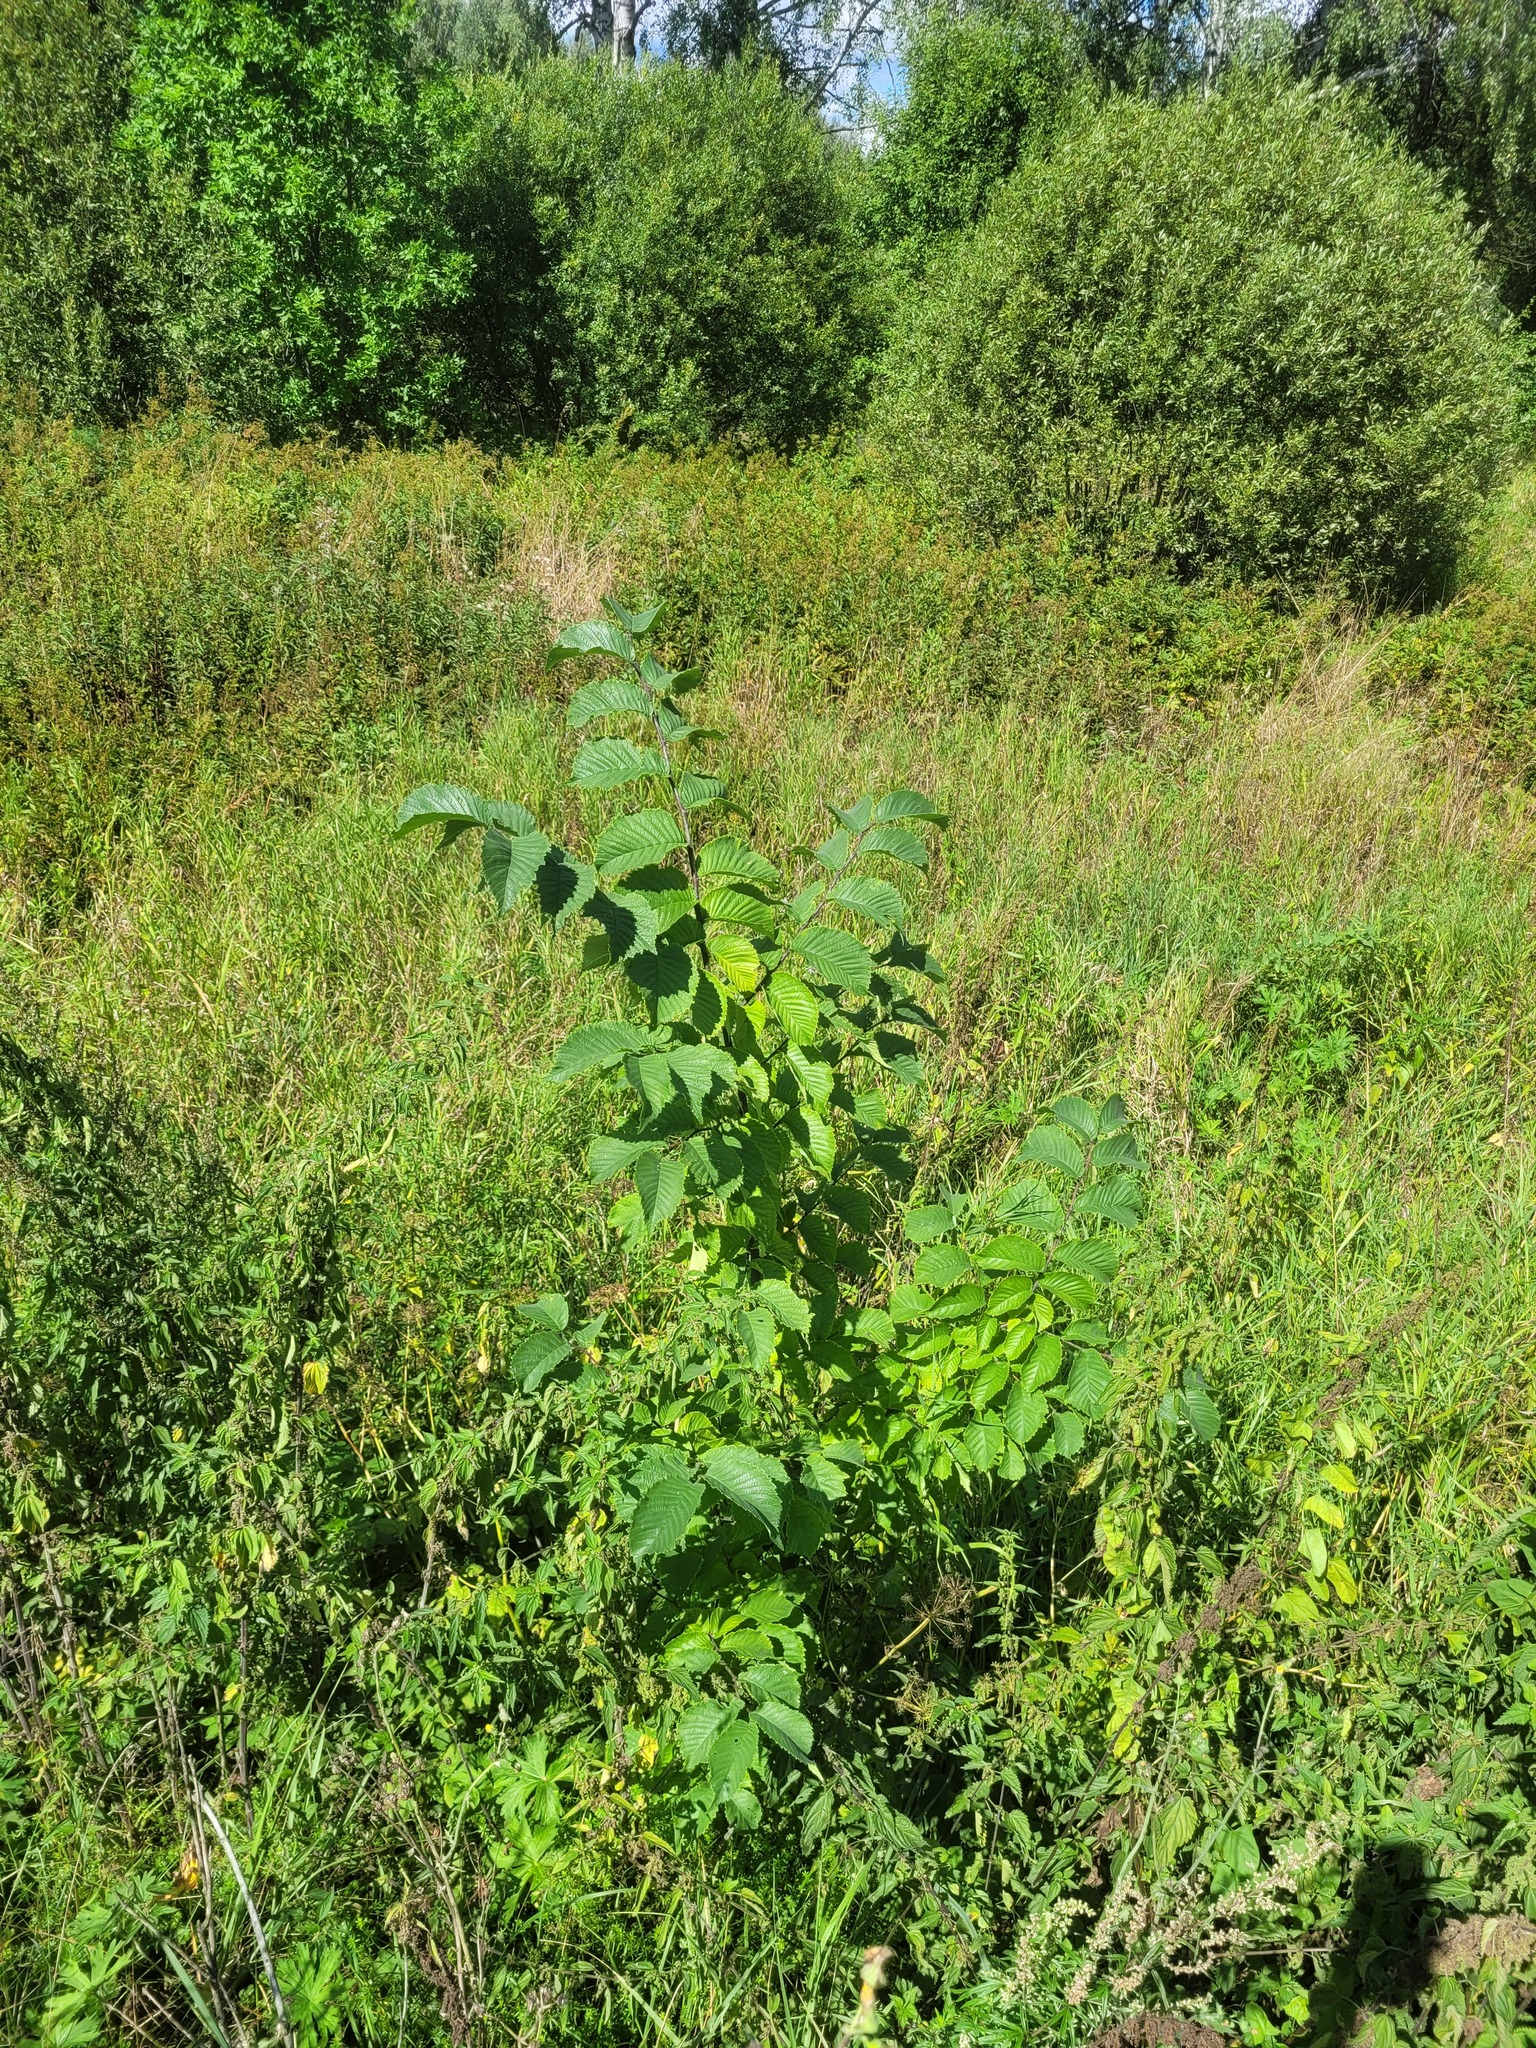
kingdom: Plantae
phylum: Tracheophyta
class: Magnoliopsida
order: Rosales
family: Ulmaceae
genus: Ulmus
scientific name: Ulmus glabra
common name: Wych elm
